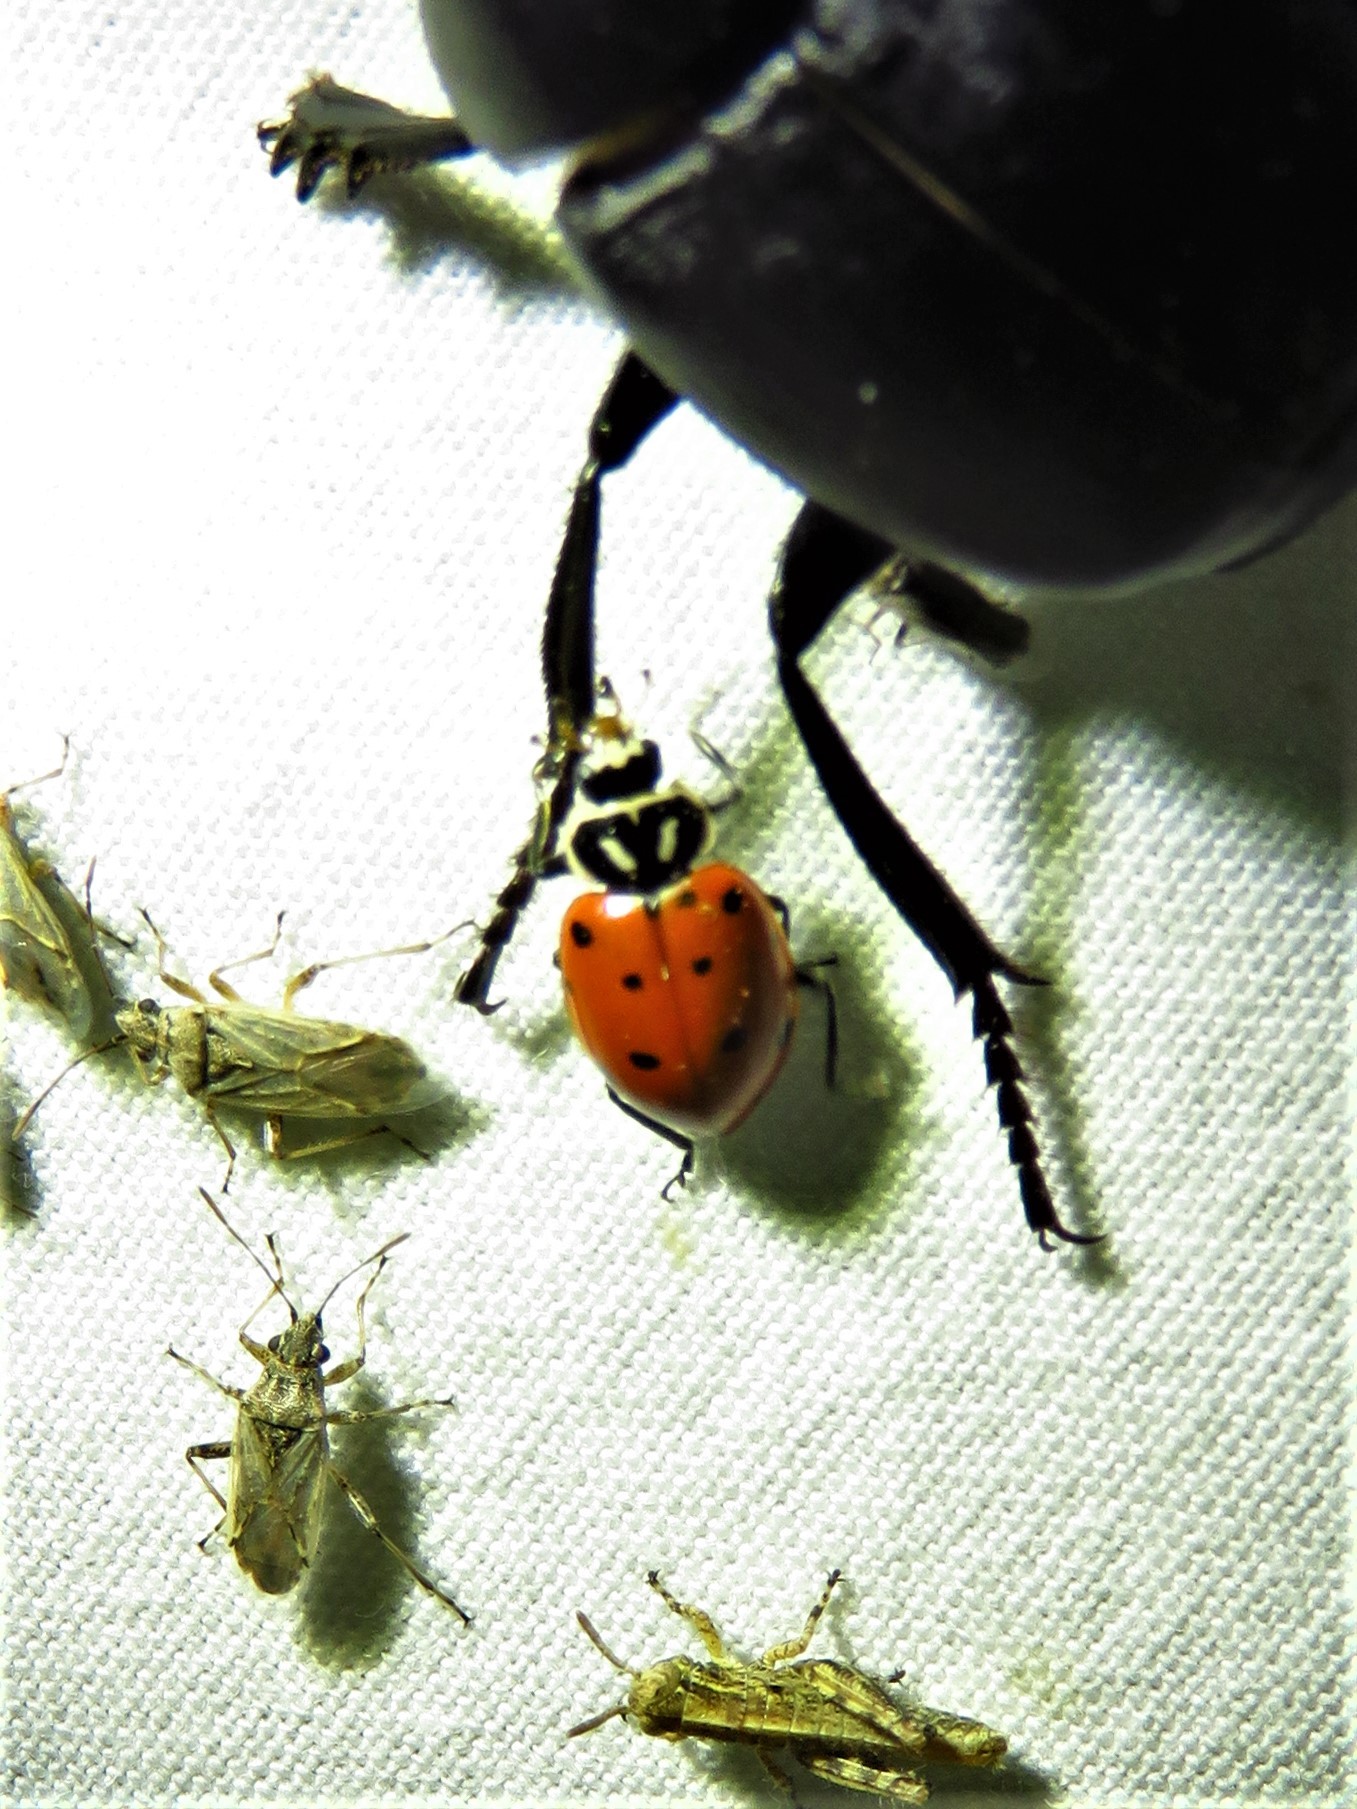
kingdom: Animalia
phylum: Arthropoda
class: Insecta
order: Coleoptera
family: Coccinellidae
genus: Hippodamia
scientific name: Hippodamia convergens
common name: Convergent lady beetle
